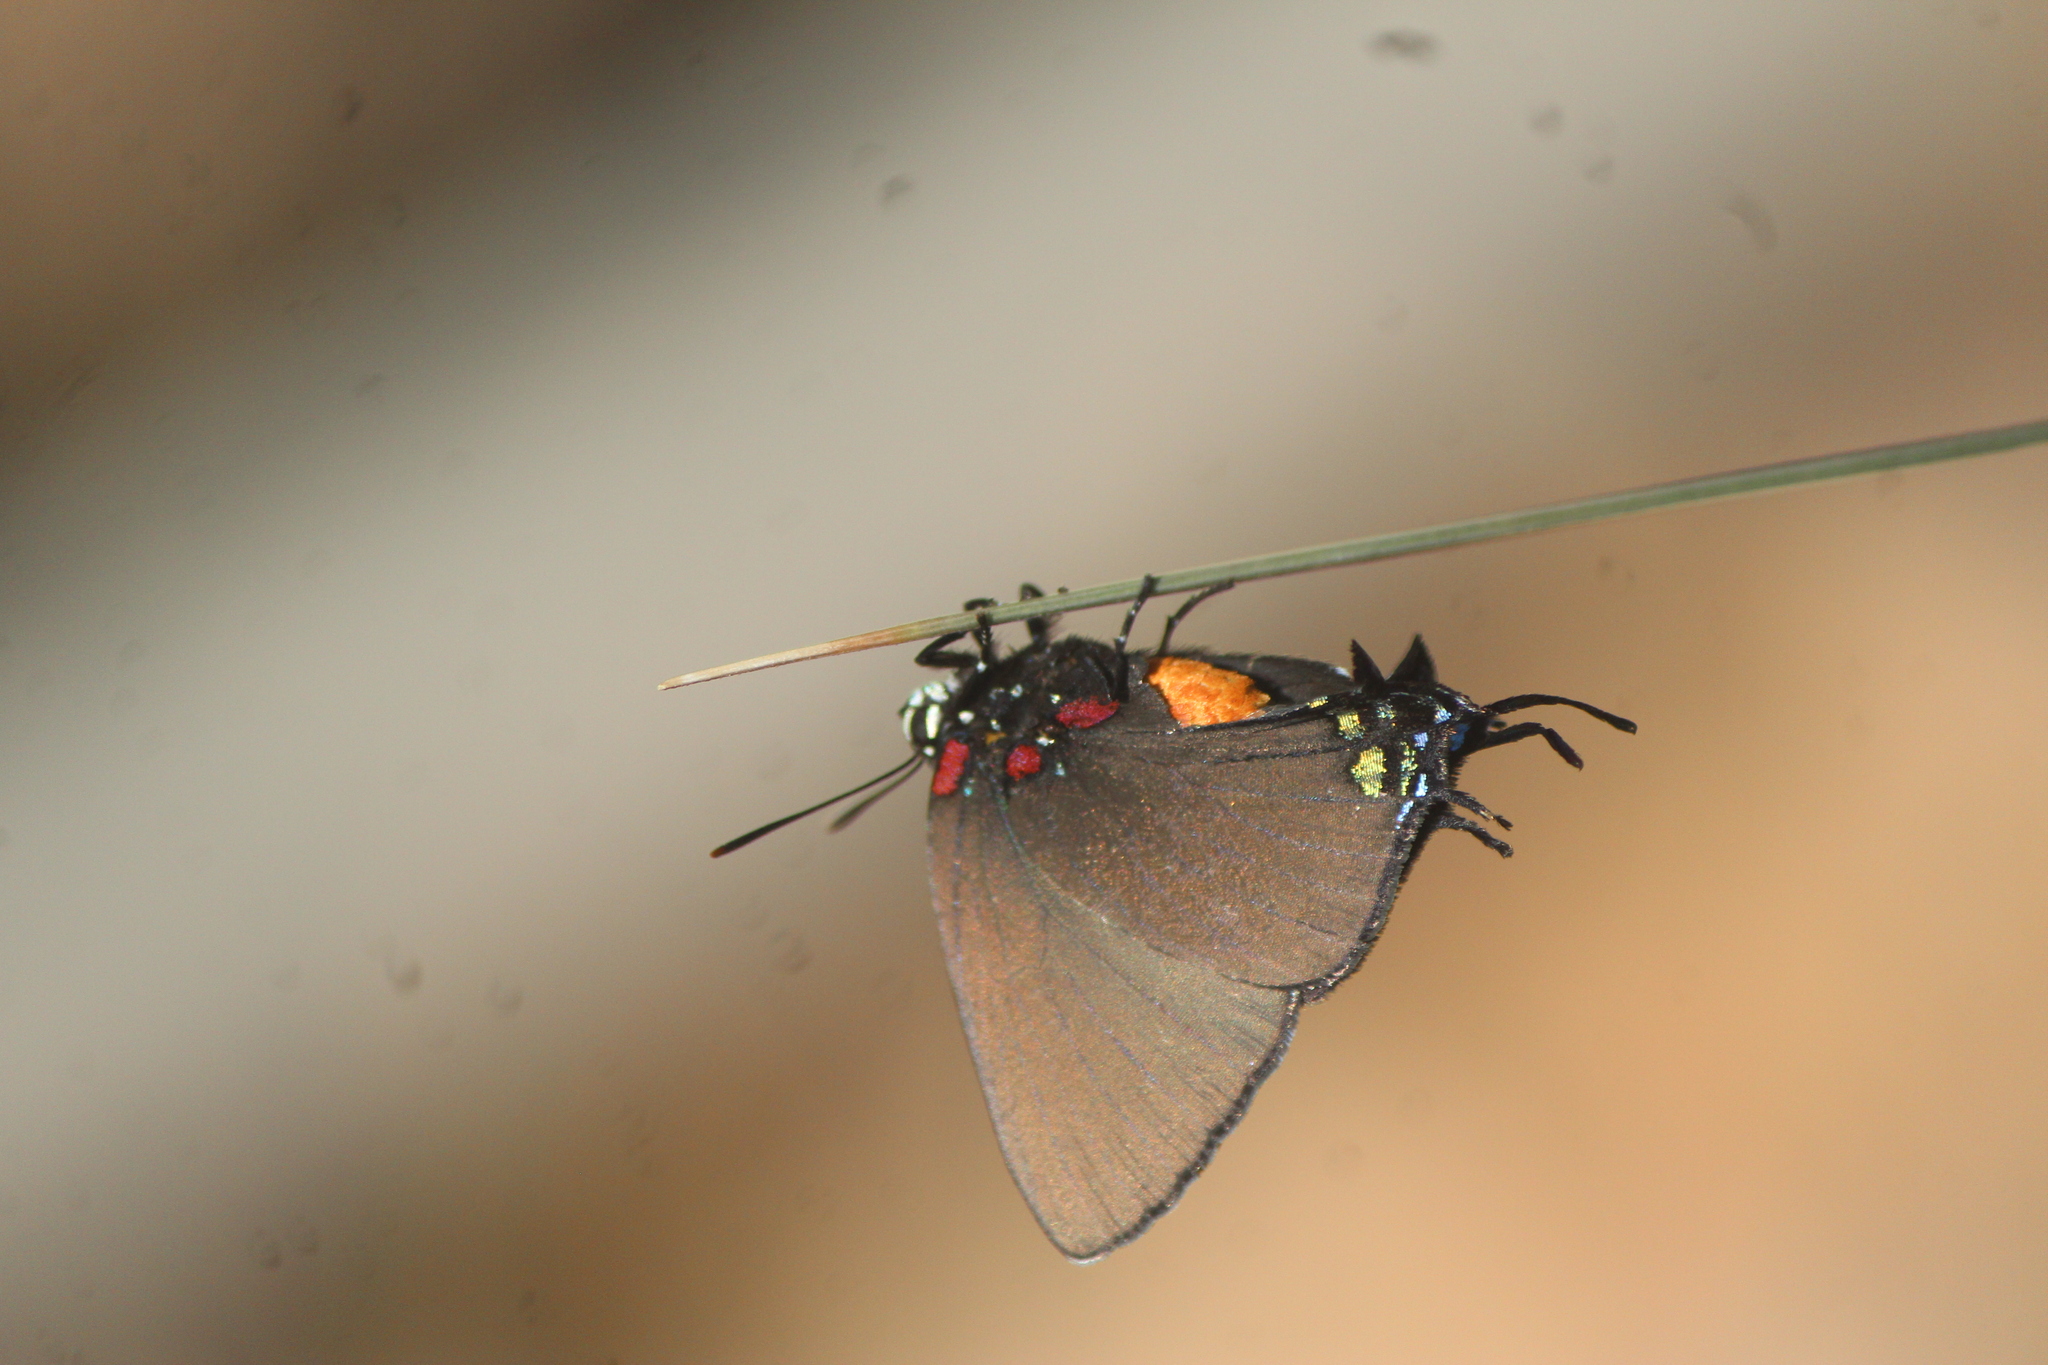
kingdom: Animalia
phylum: Arthropoda
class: Insecta
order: Lepidoptera
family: Lycaenidae
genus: Atlides
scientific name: Atlides halesus
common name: Great purple hairstreak
